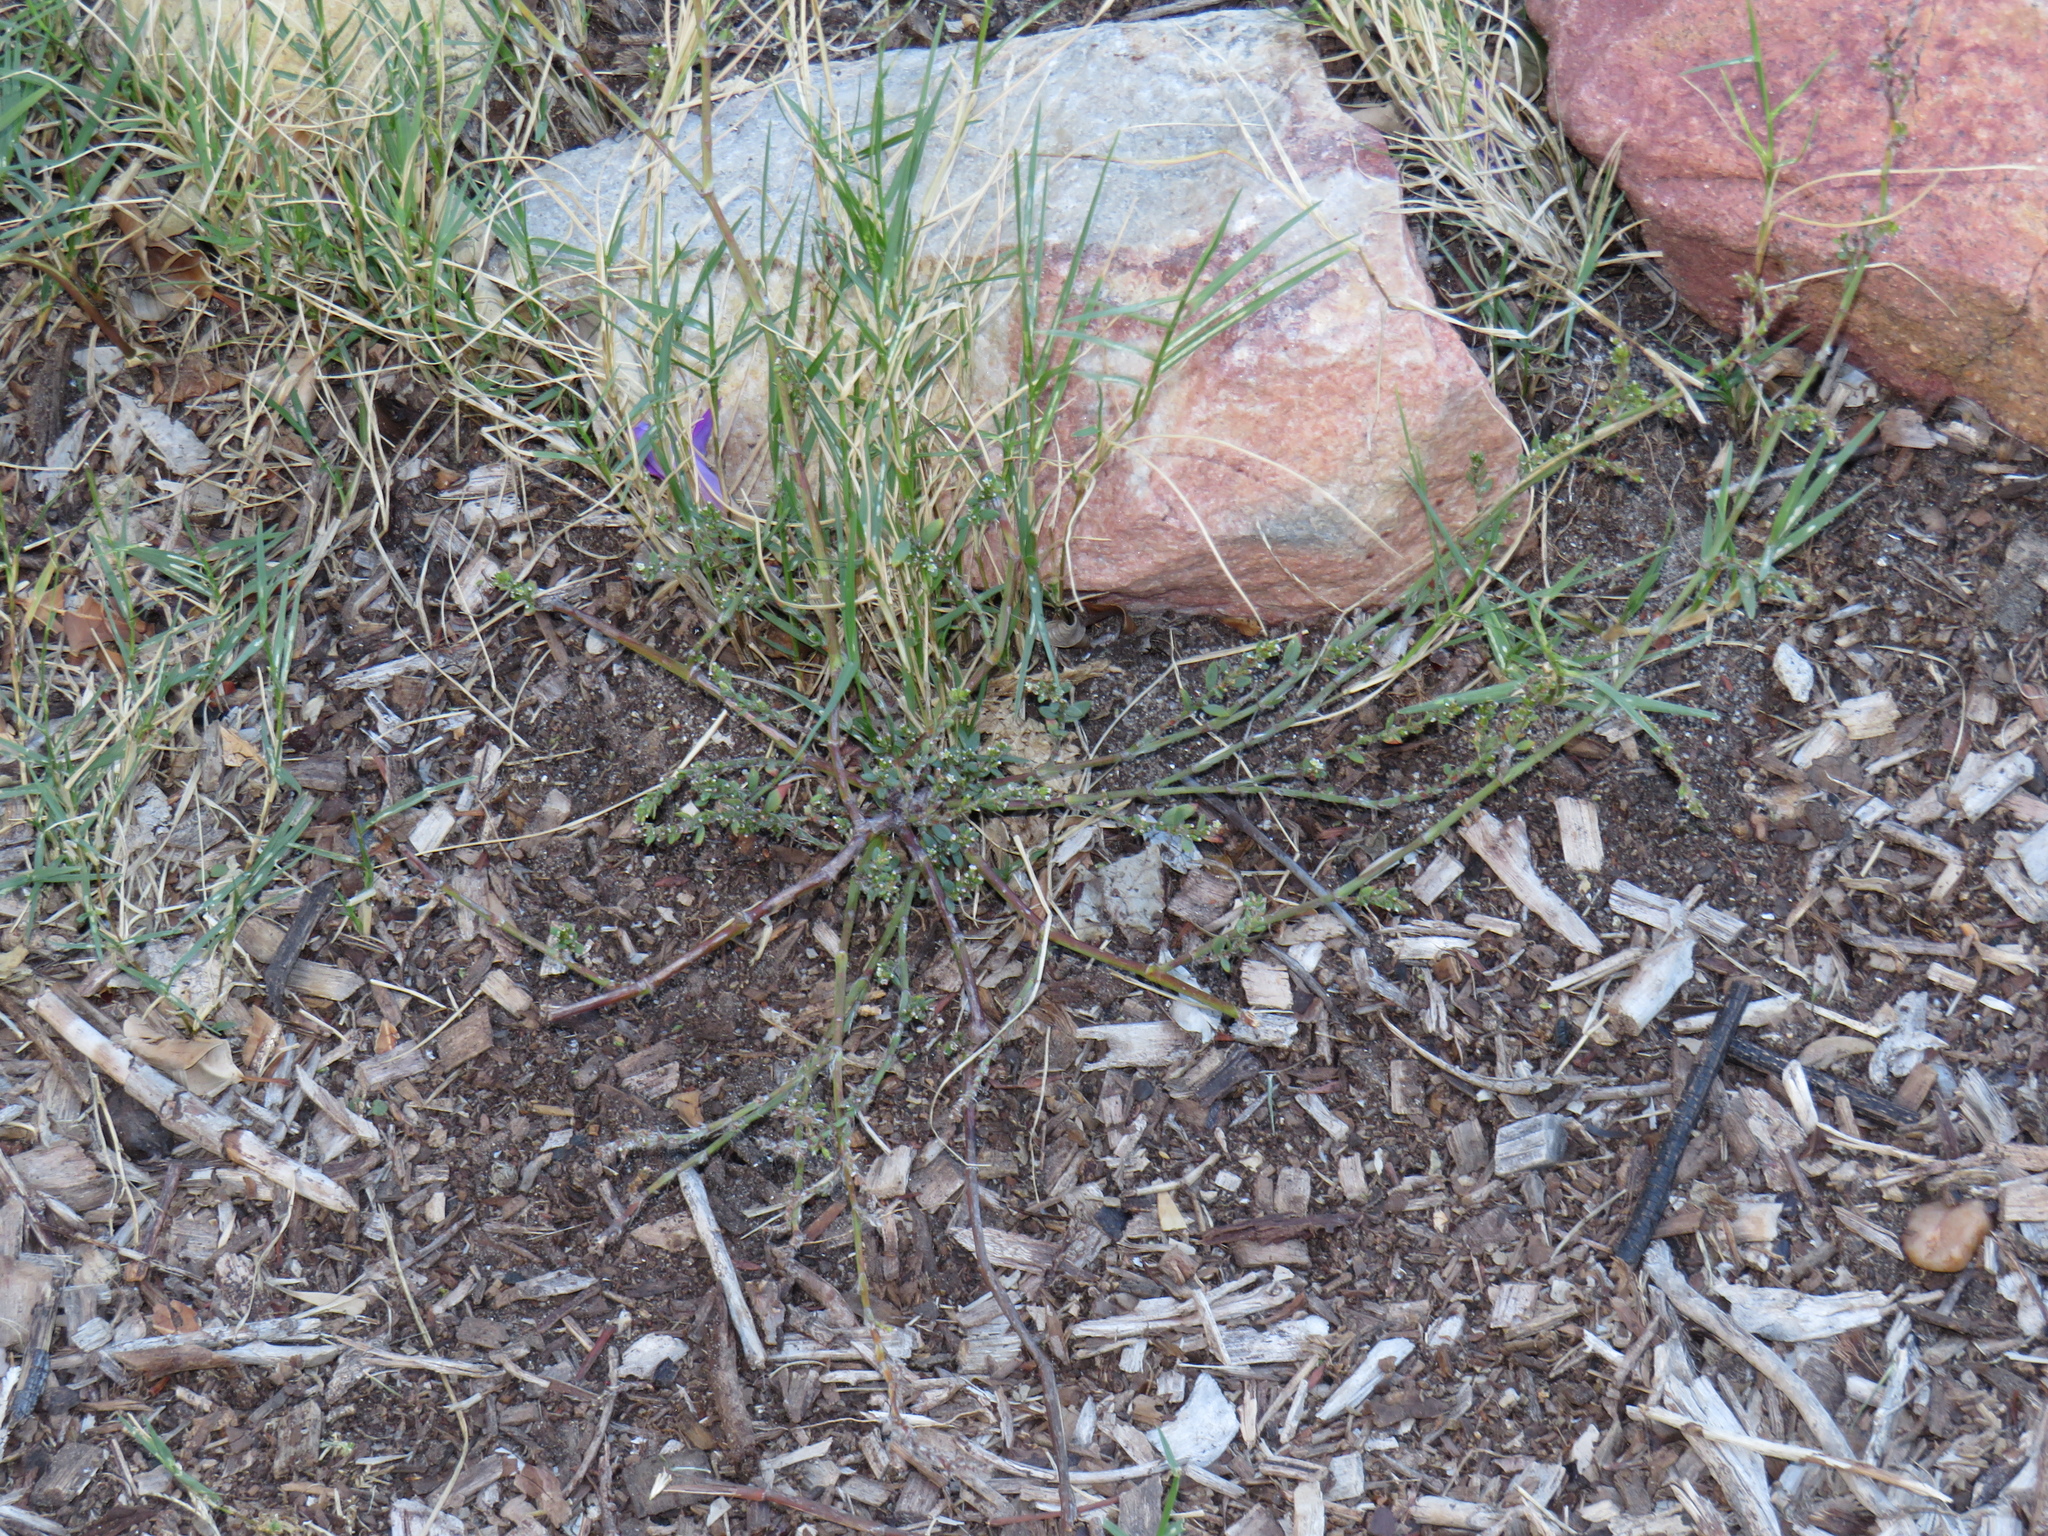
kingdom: Plantae
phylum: Tracheophyta
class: Magnoliopsida
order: Caryophyllales
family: Polygonaceae
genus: Polygonum
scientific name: Polygonum aviculare
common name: Prostrate knotweed
